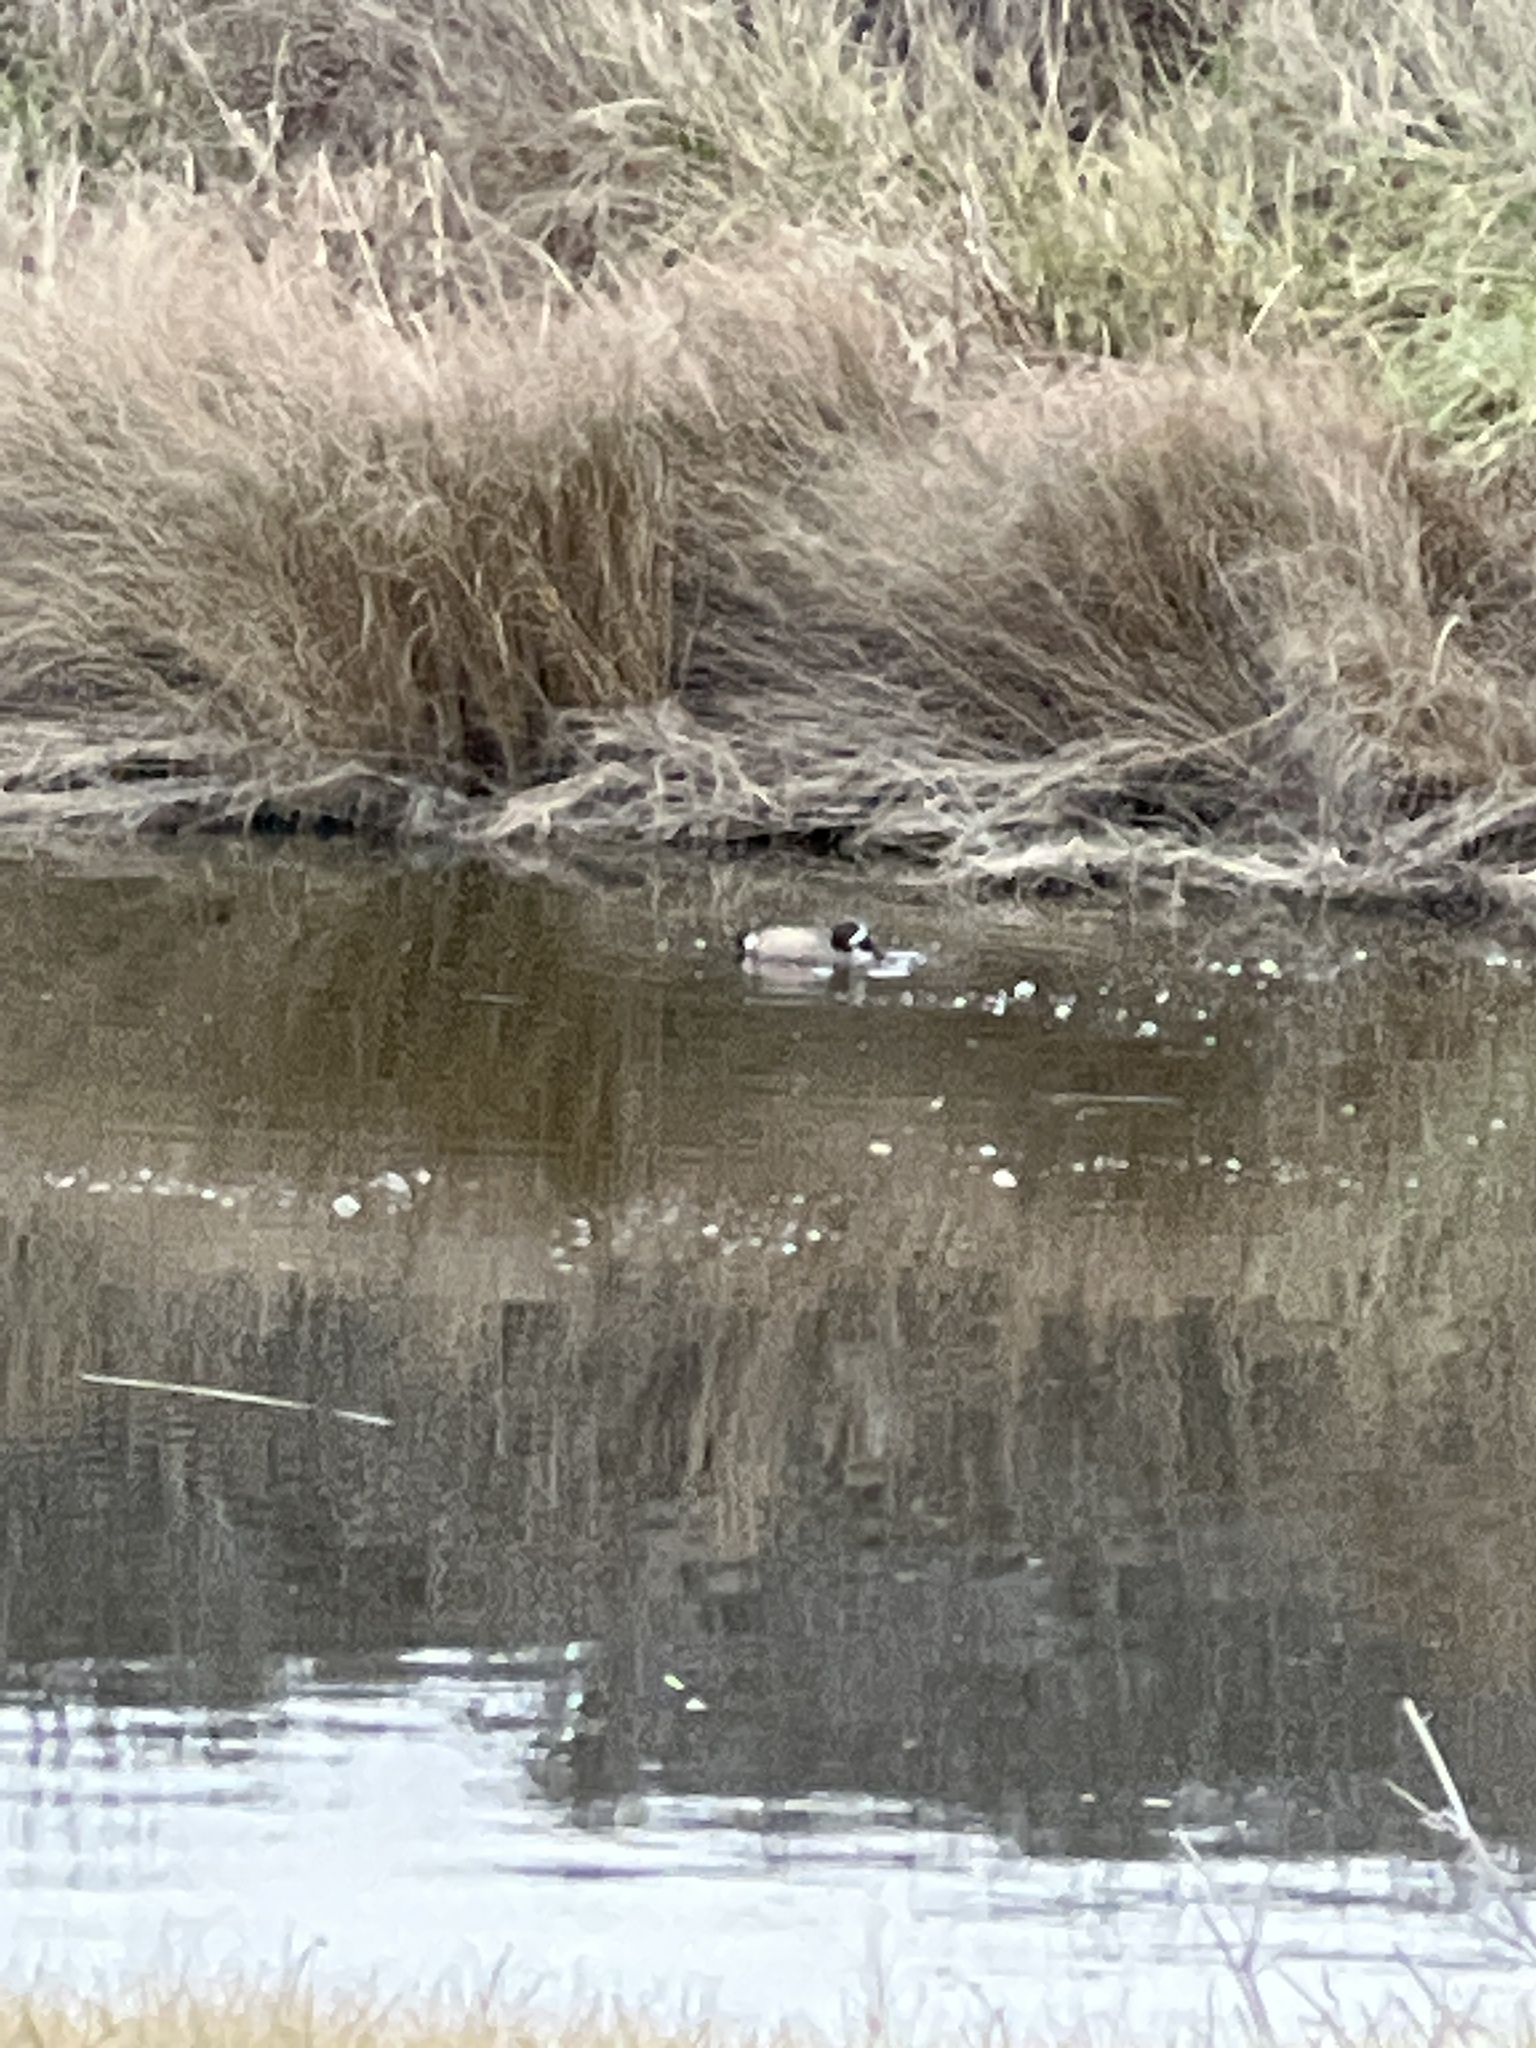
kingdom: Animalia
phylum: Chordata
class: Aves
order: Anseriformes
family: Anatidae
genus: Spatula
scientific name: Spatula discors
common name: Blue-winged teal
